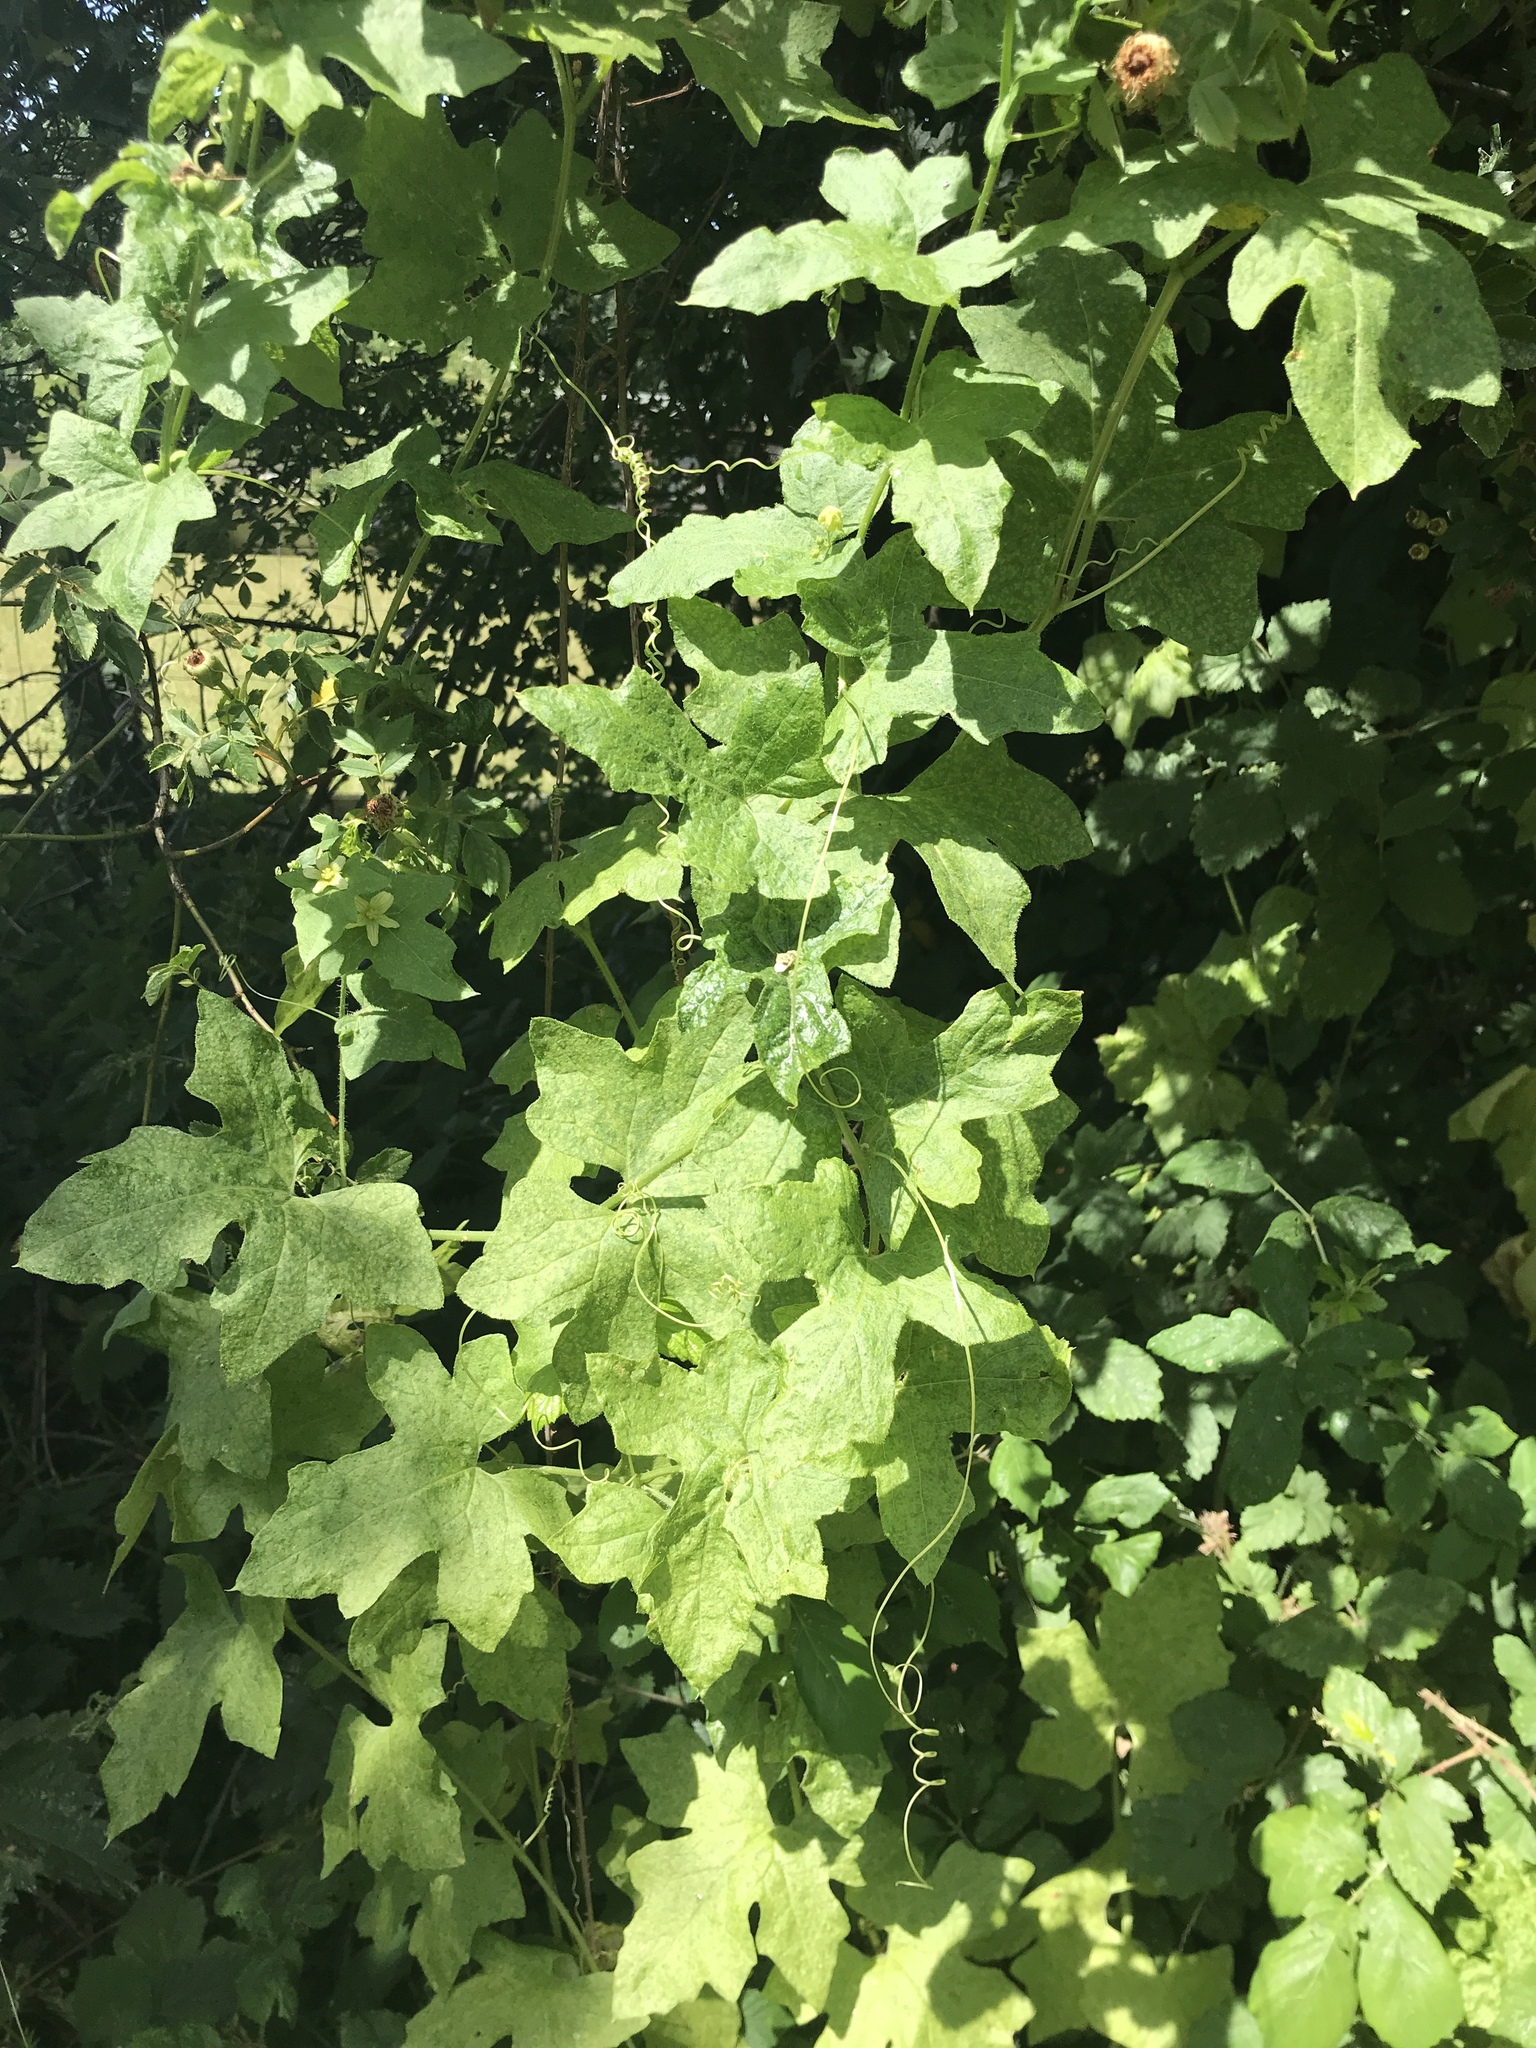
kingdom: Plantae
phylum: Tracheophyta
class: Magnoliopsida
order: Cucurbitales
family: Cucurbitaceae
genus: Bryonia
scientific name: Bryonia cretica
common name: Cretan bryony
